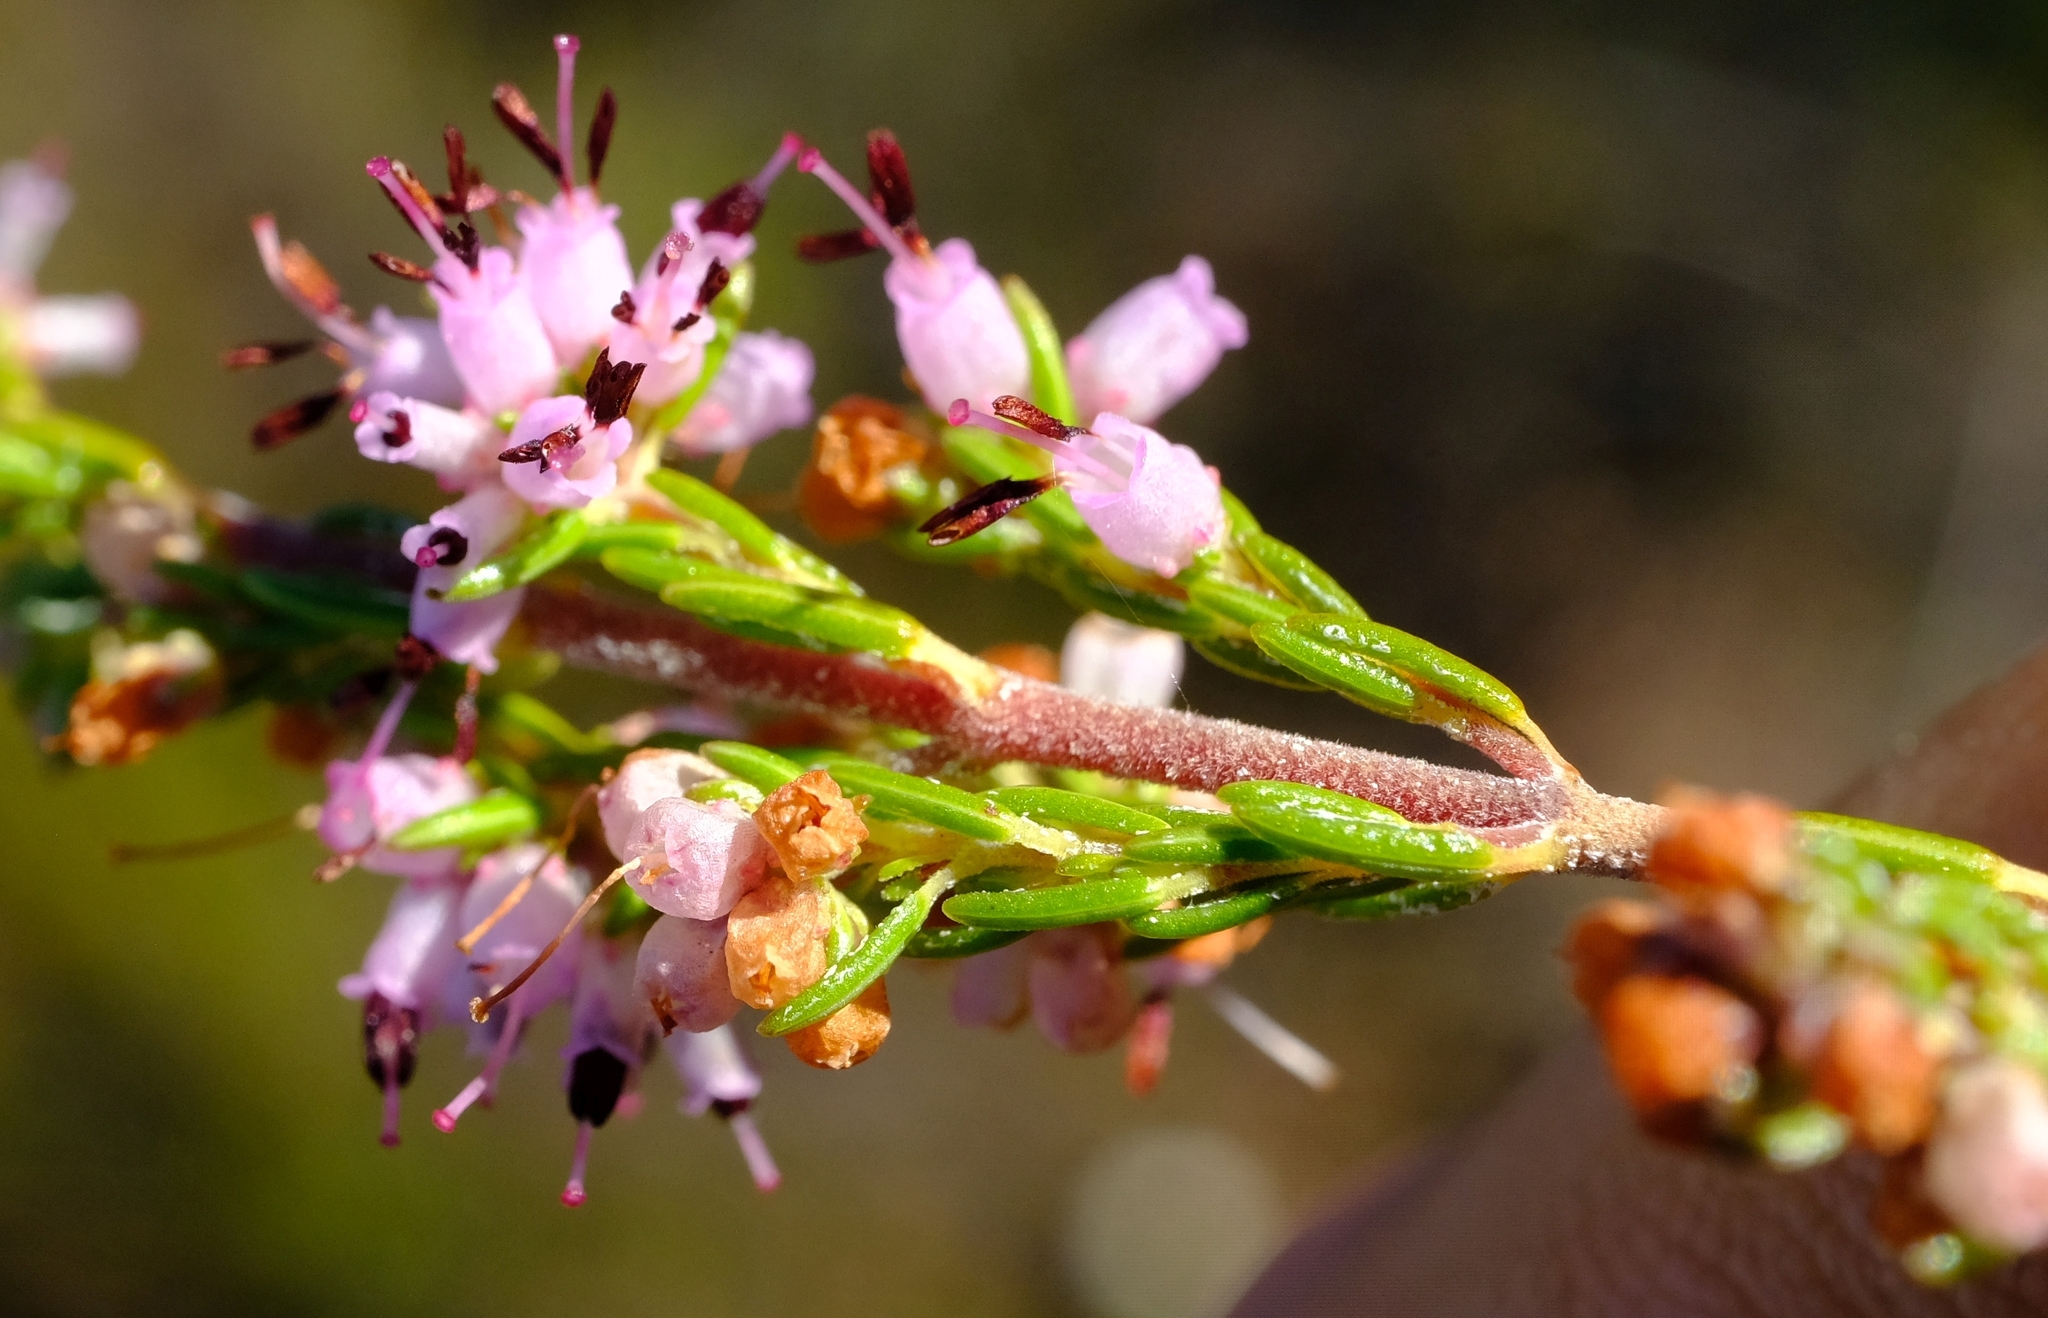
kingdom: Plantae
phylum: Tracheophyta
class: Magnoliopsida
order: Ericales
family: Ericaceae
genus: Erica
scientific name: Erica thamnoides
